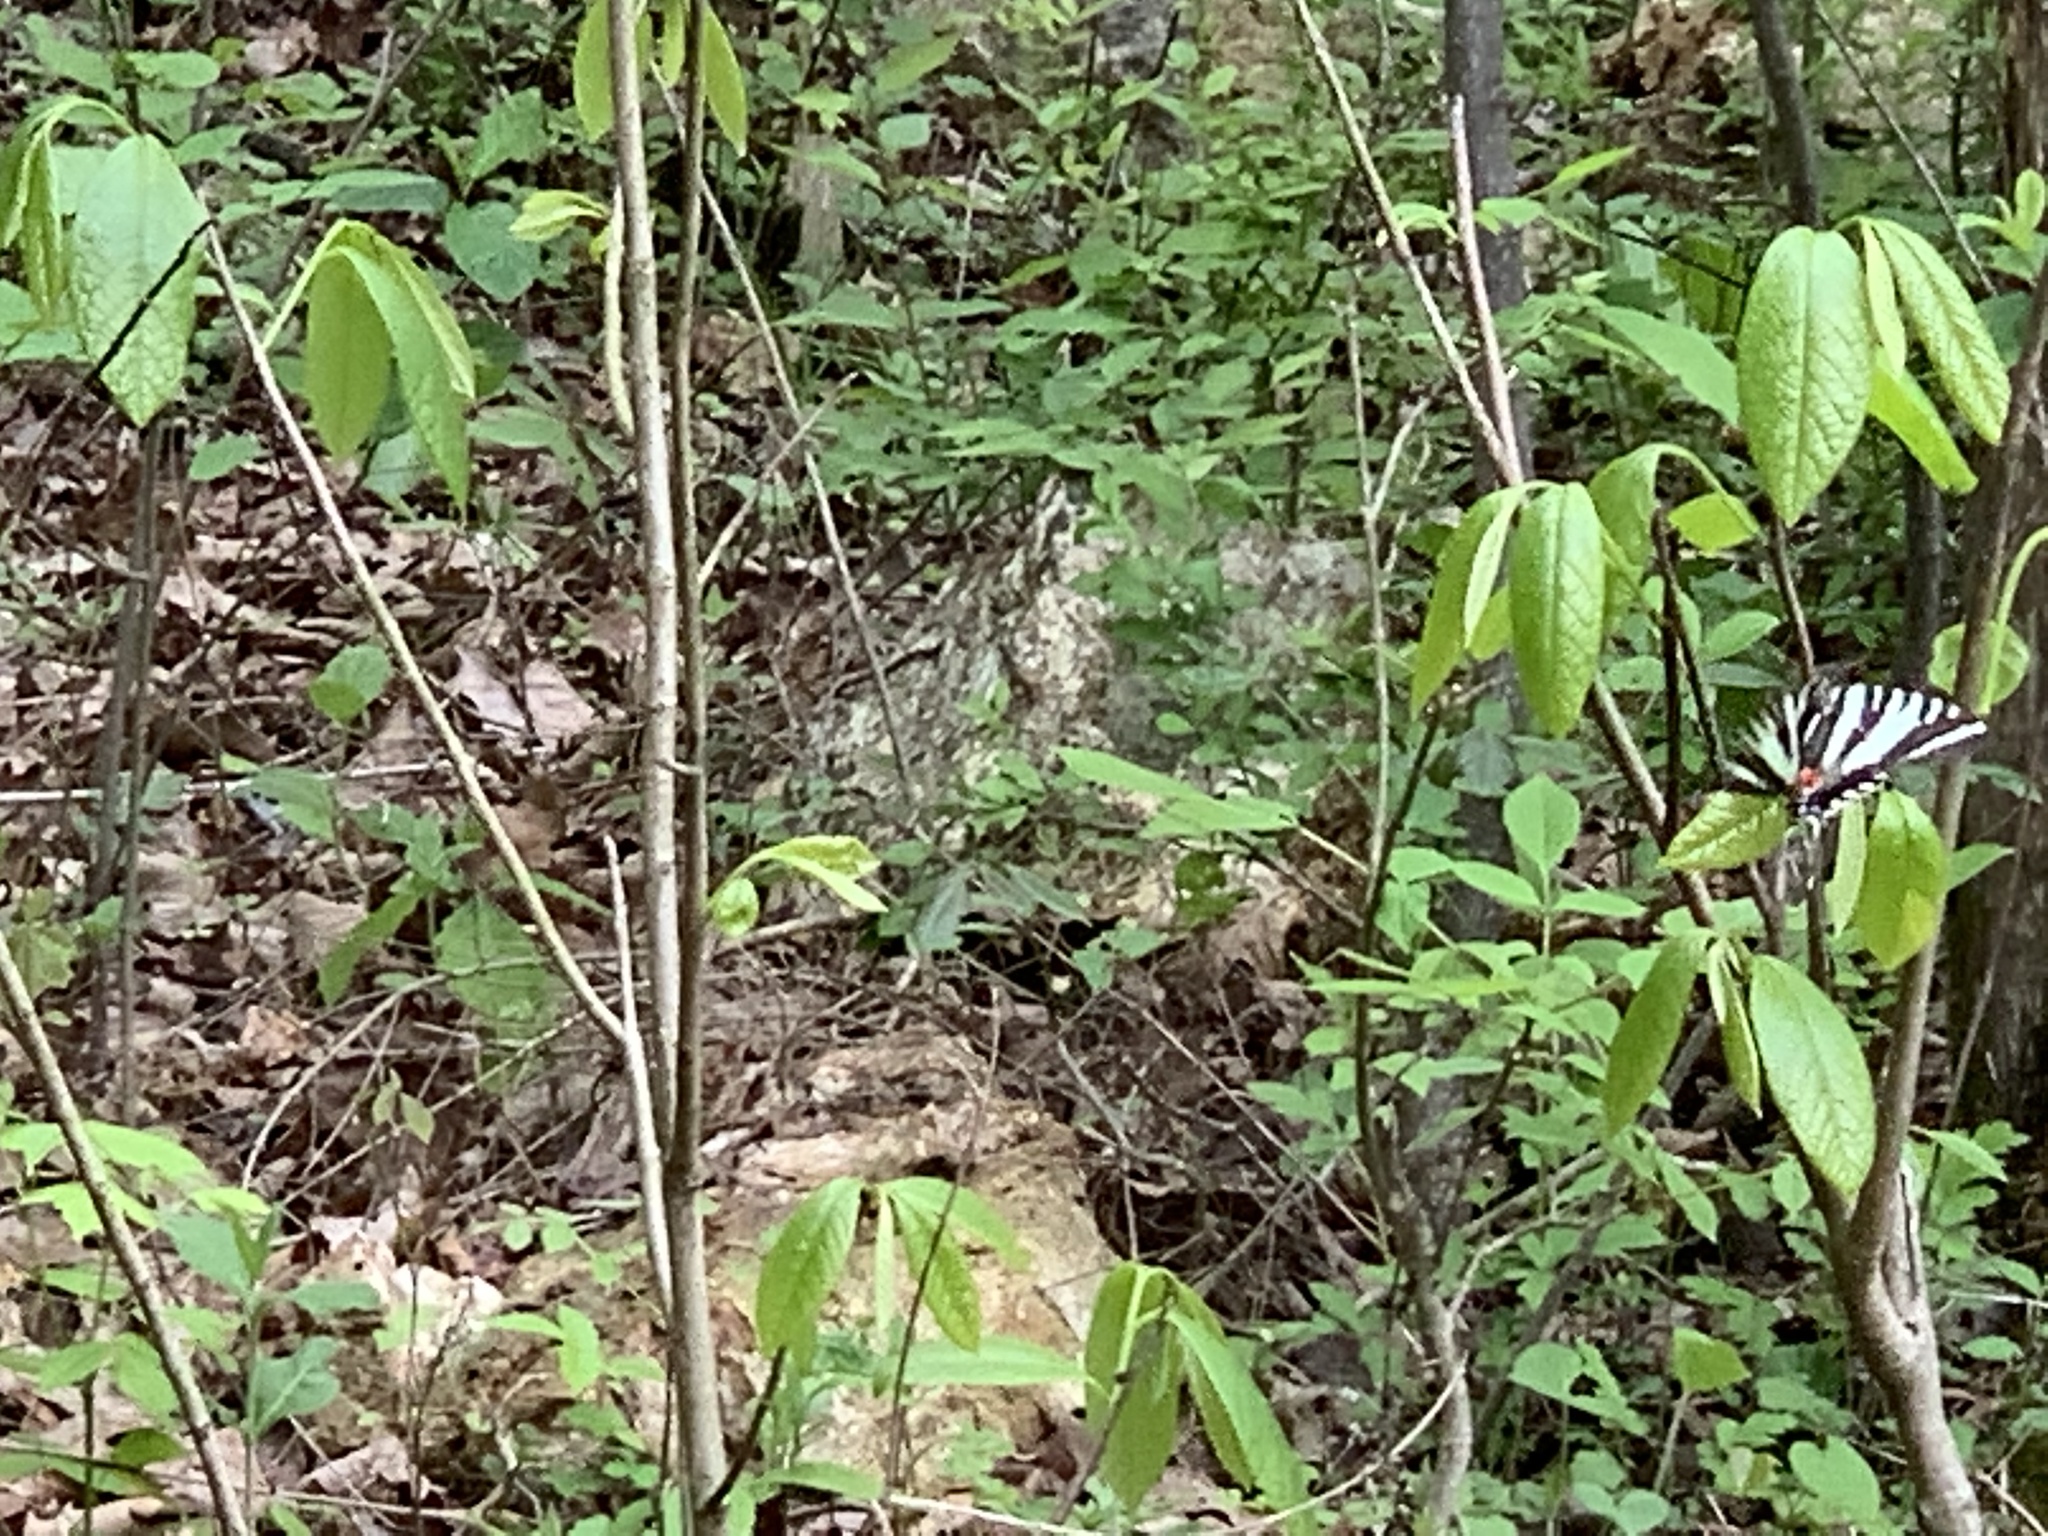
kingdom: Animalia
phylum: Arthropoda
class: Insecta
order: Lepidoptera
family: Papilionidae
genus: Protographium
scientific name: Protographium marcellus
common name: Zebra swallowtail
